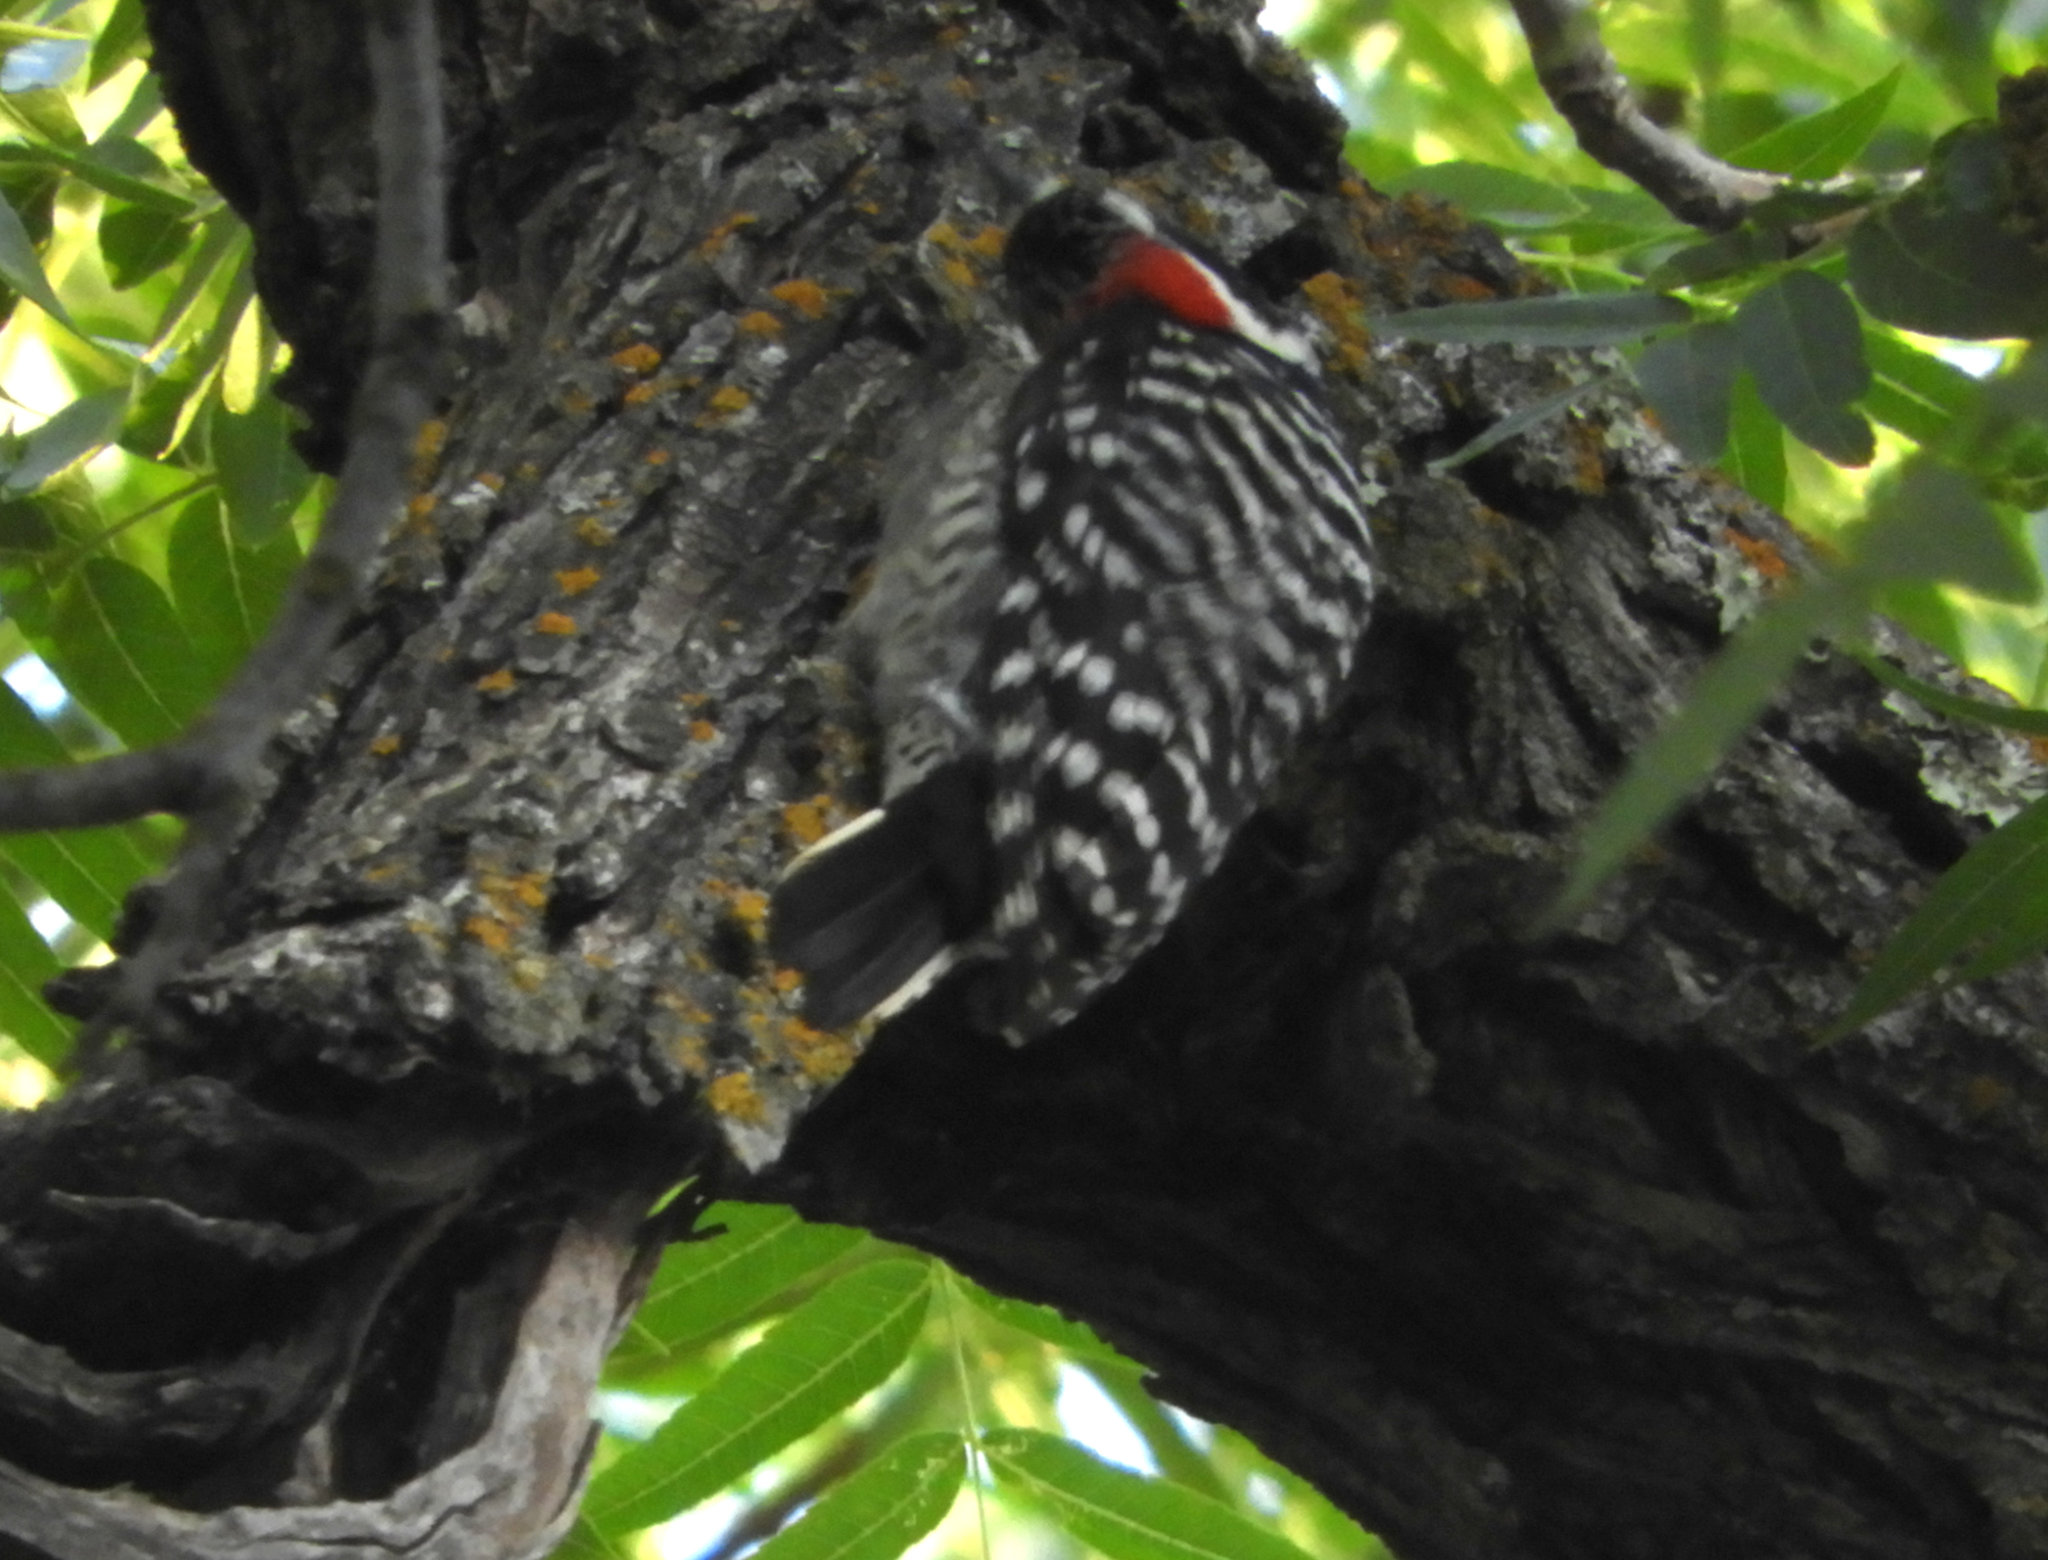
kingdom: Animalia
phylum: Chordata
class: Aves
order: Piciformes
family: Picidae
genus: Dryobates
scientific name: Dryobates nuttallii
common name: Nuttall's woodpecker
